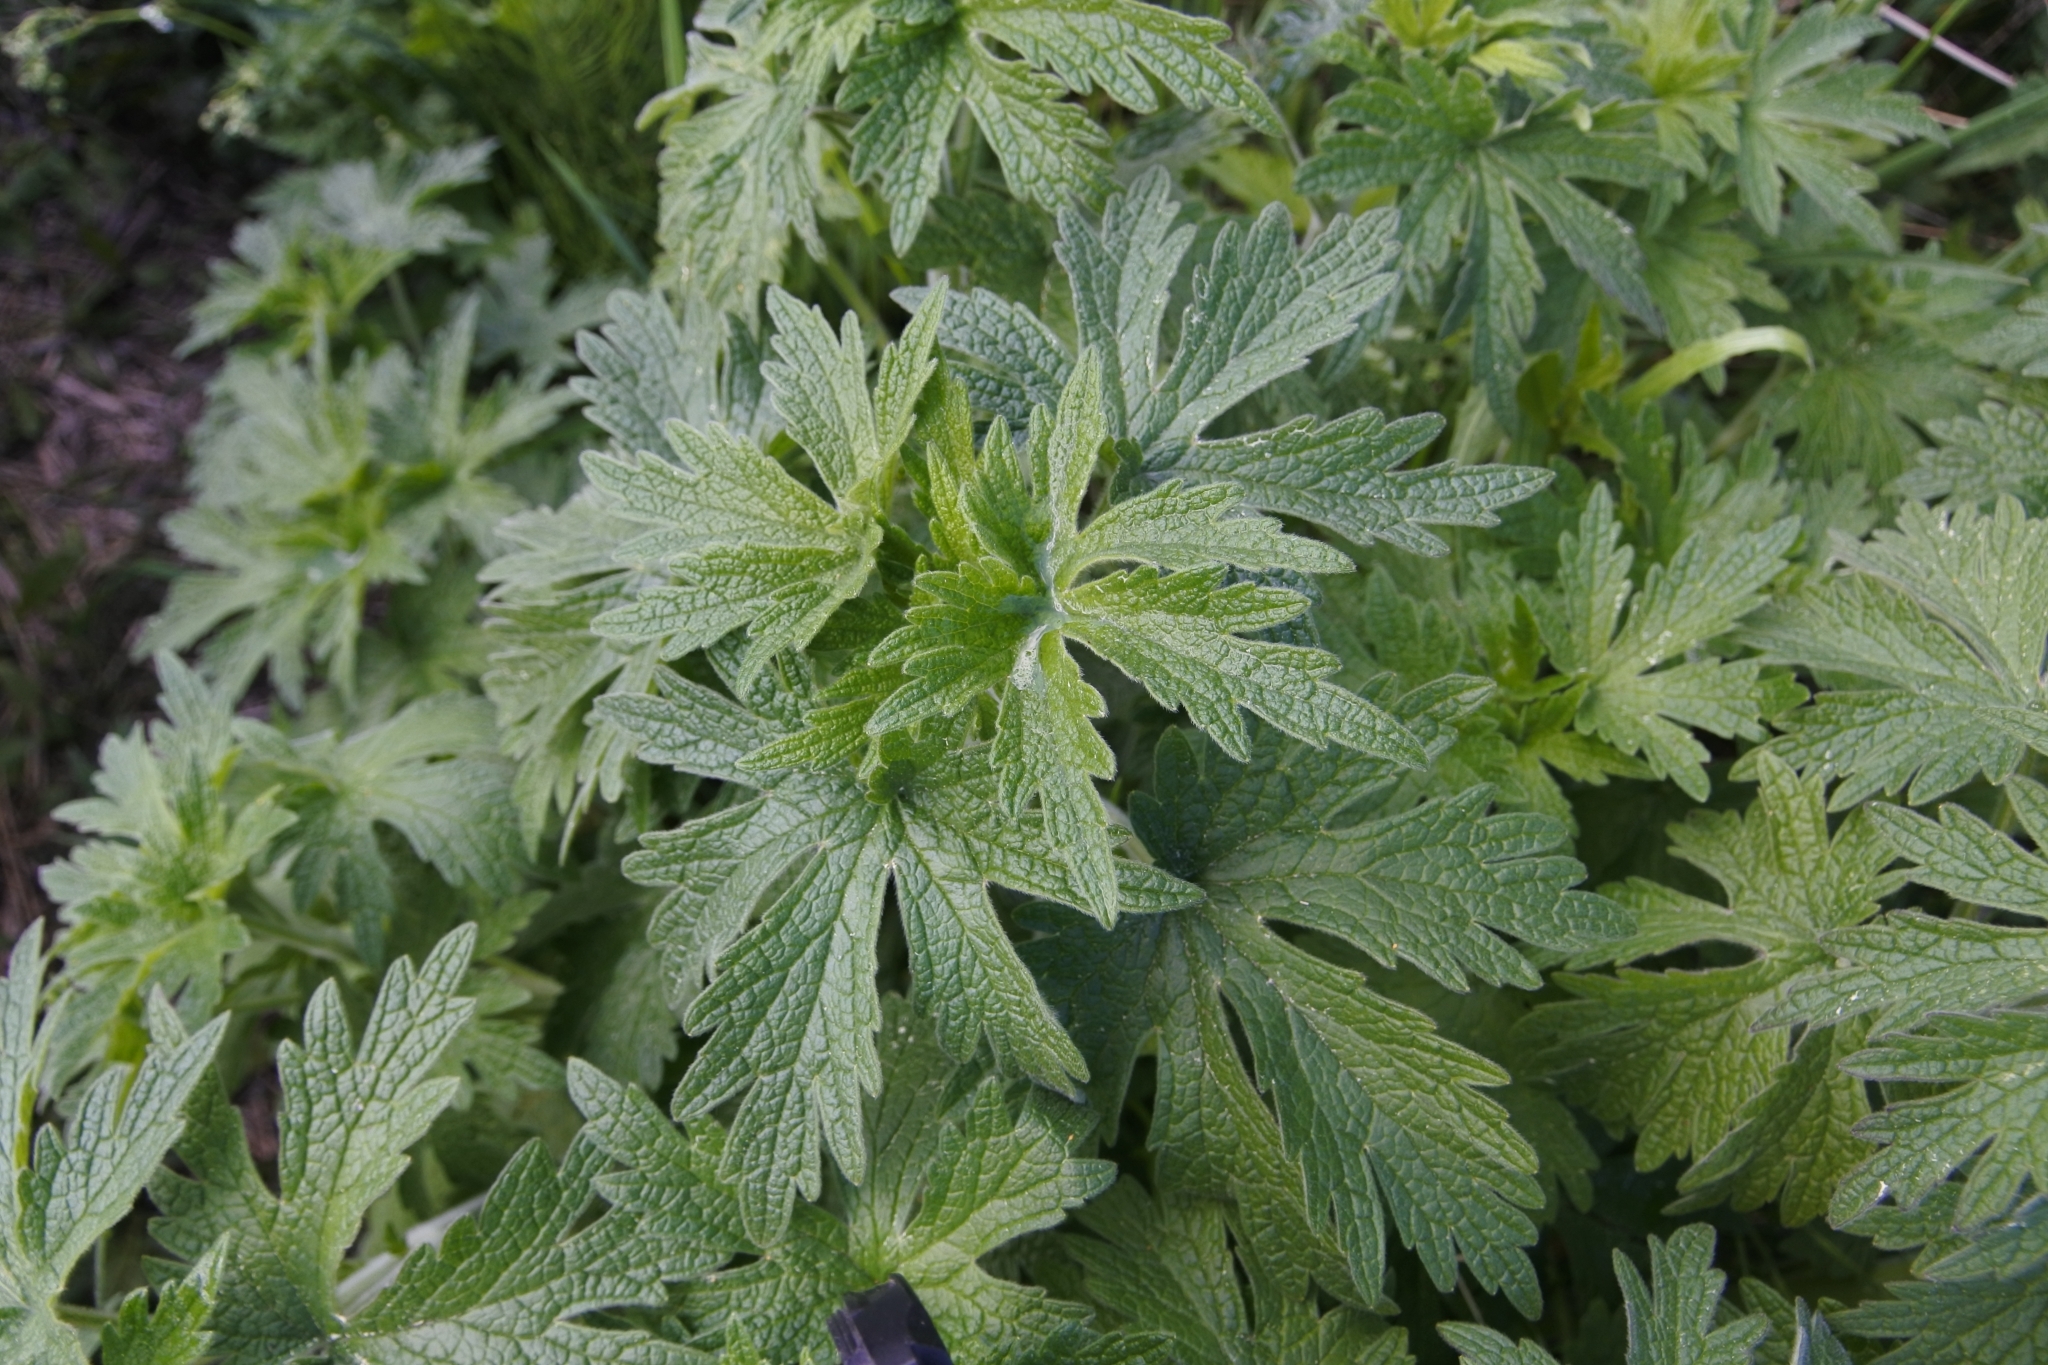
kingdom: Plantae
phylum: Tracheophyta
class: Magnoliopsida
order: Lamiales
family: Lamiaceae
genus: Leonurus
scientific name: Leonurus quinquelobatus
